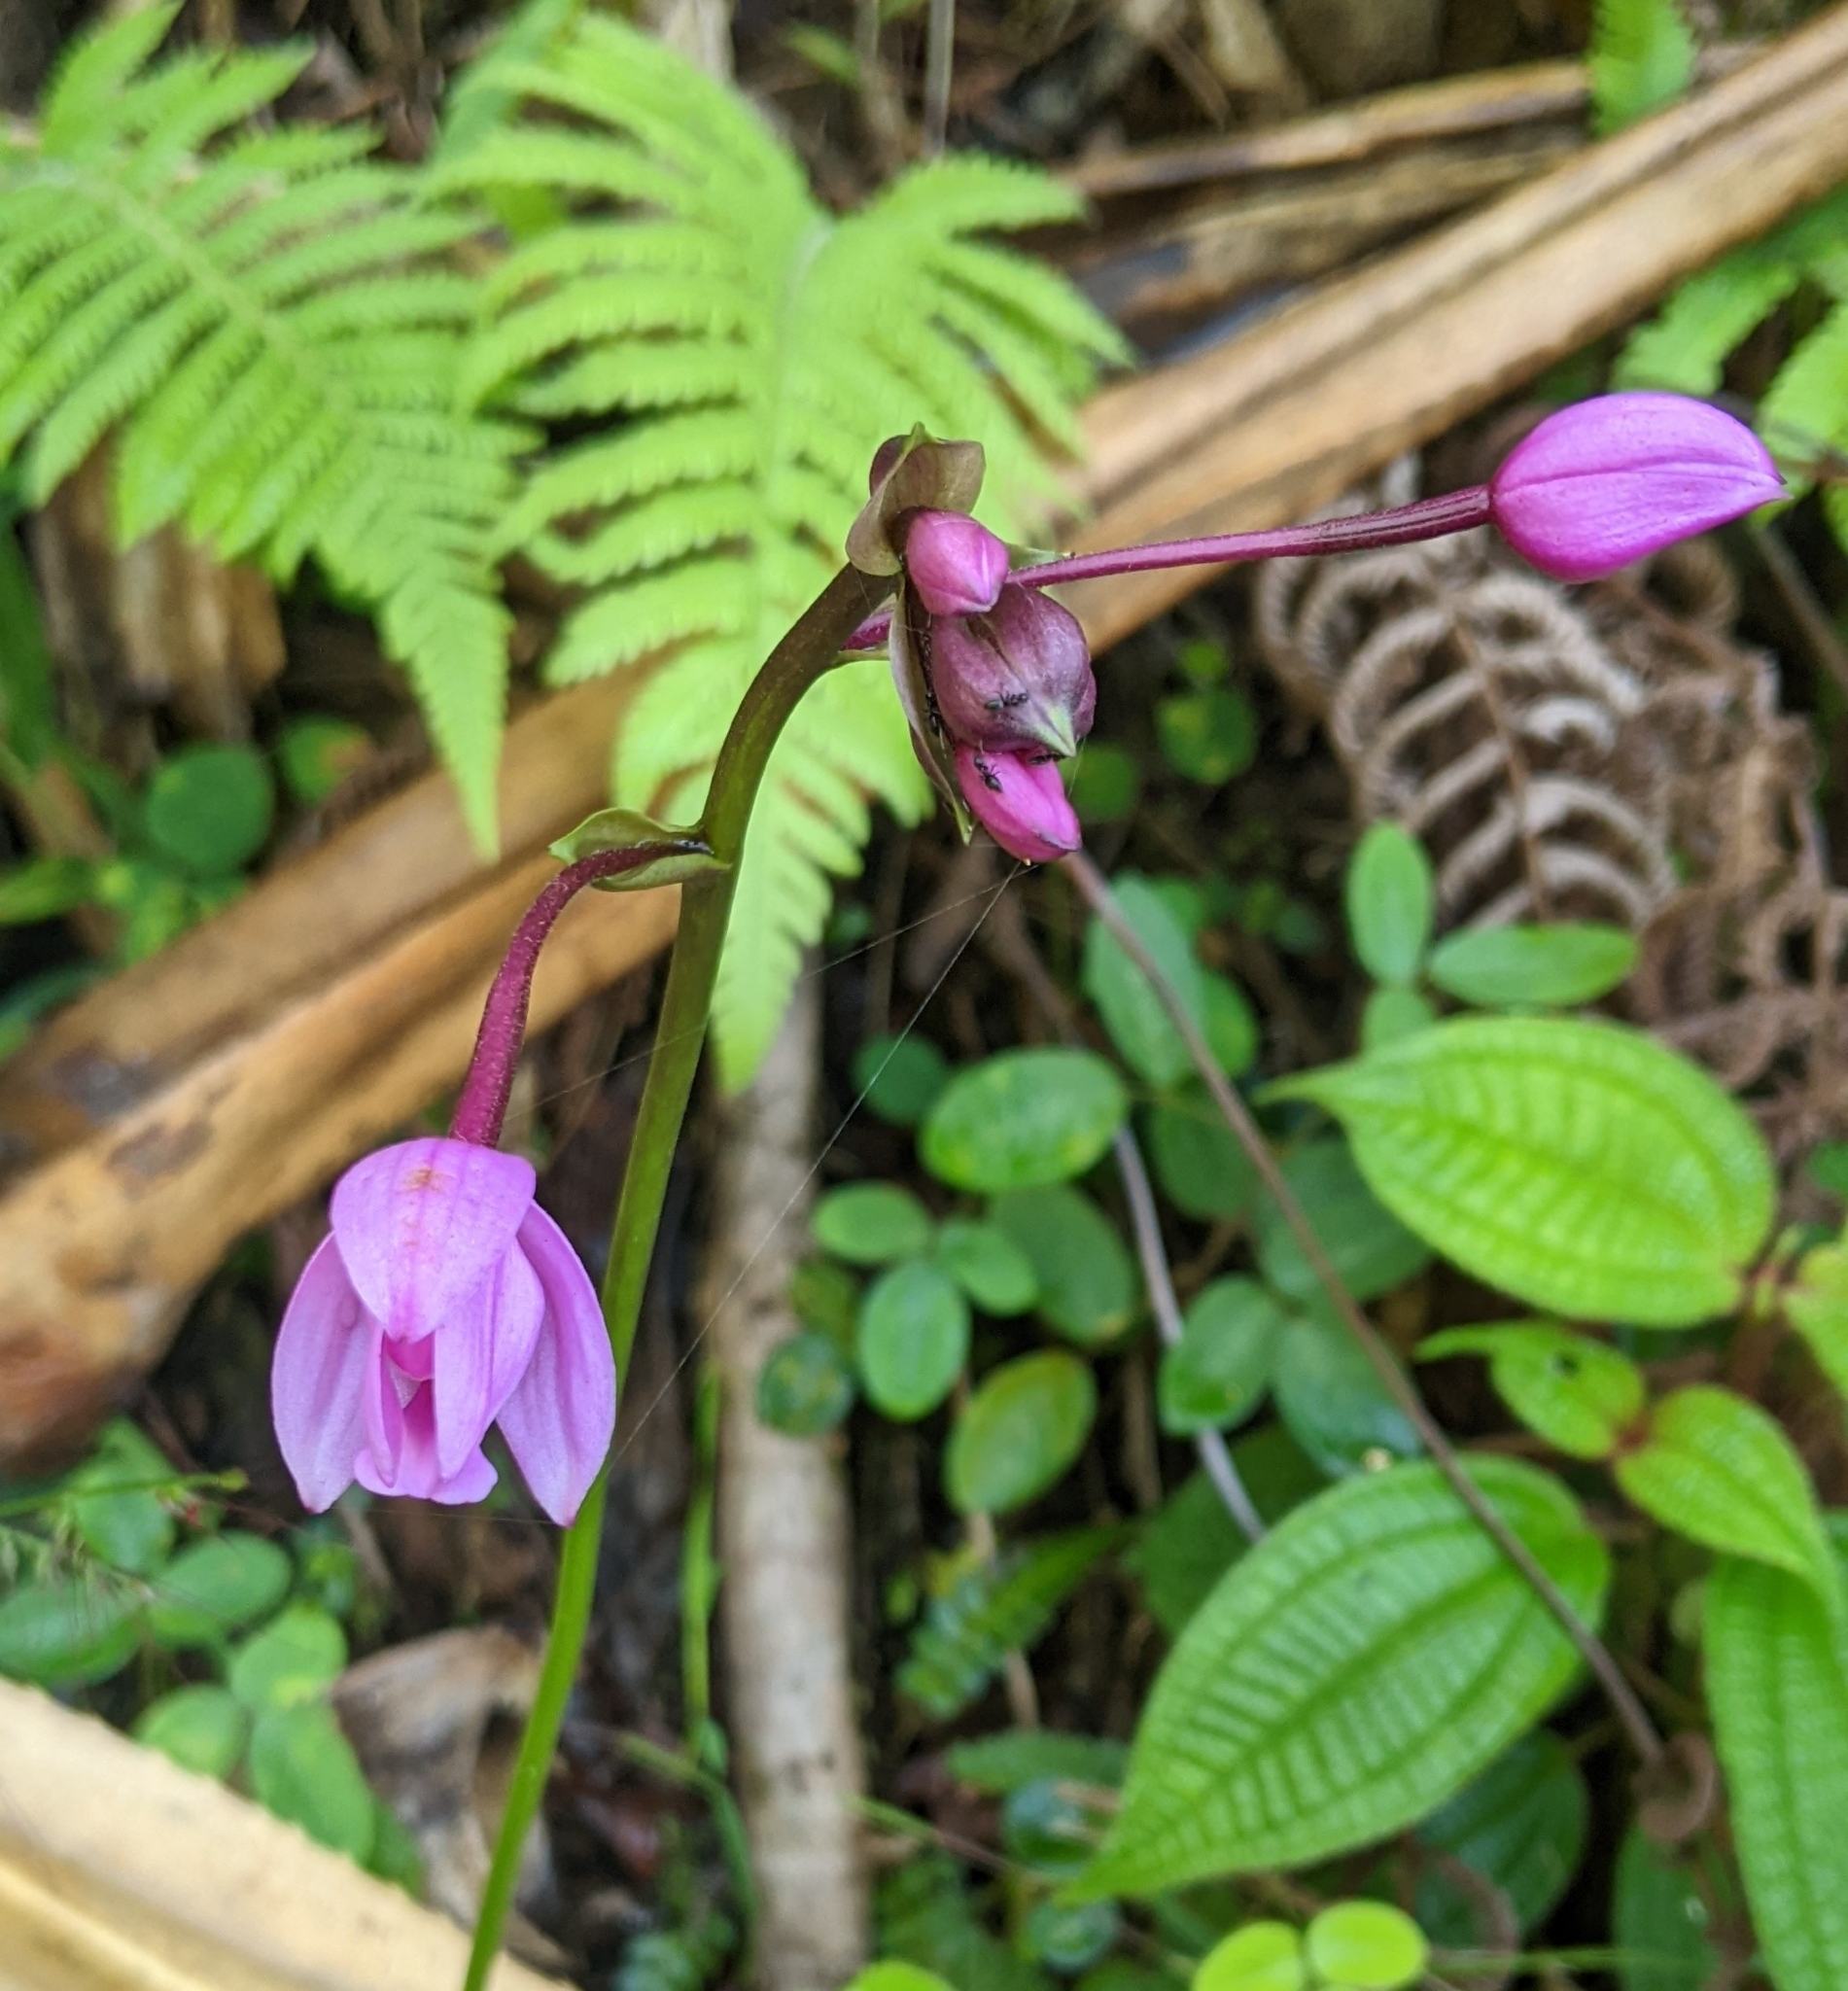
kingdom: Plantae
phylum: Tracheophyta
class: Liliopsida
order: Asparagales
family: Orchidaceae
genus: Spathoglottis
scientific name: Spathoglottis plicata
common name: Philippine ground orchid
